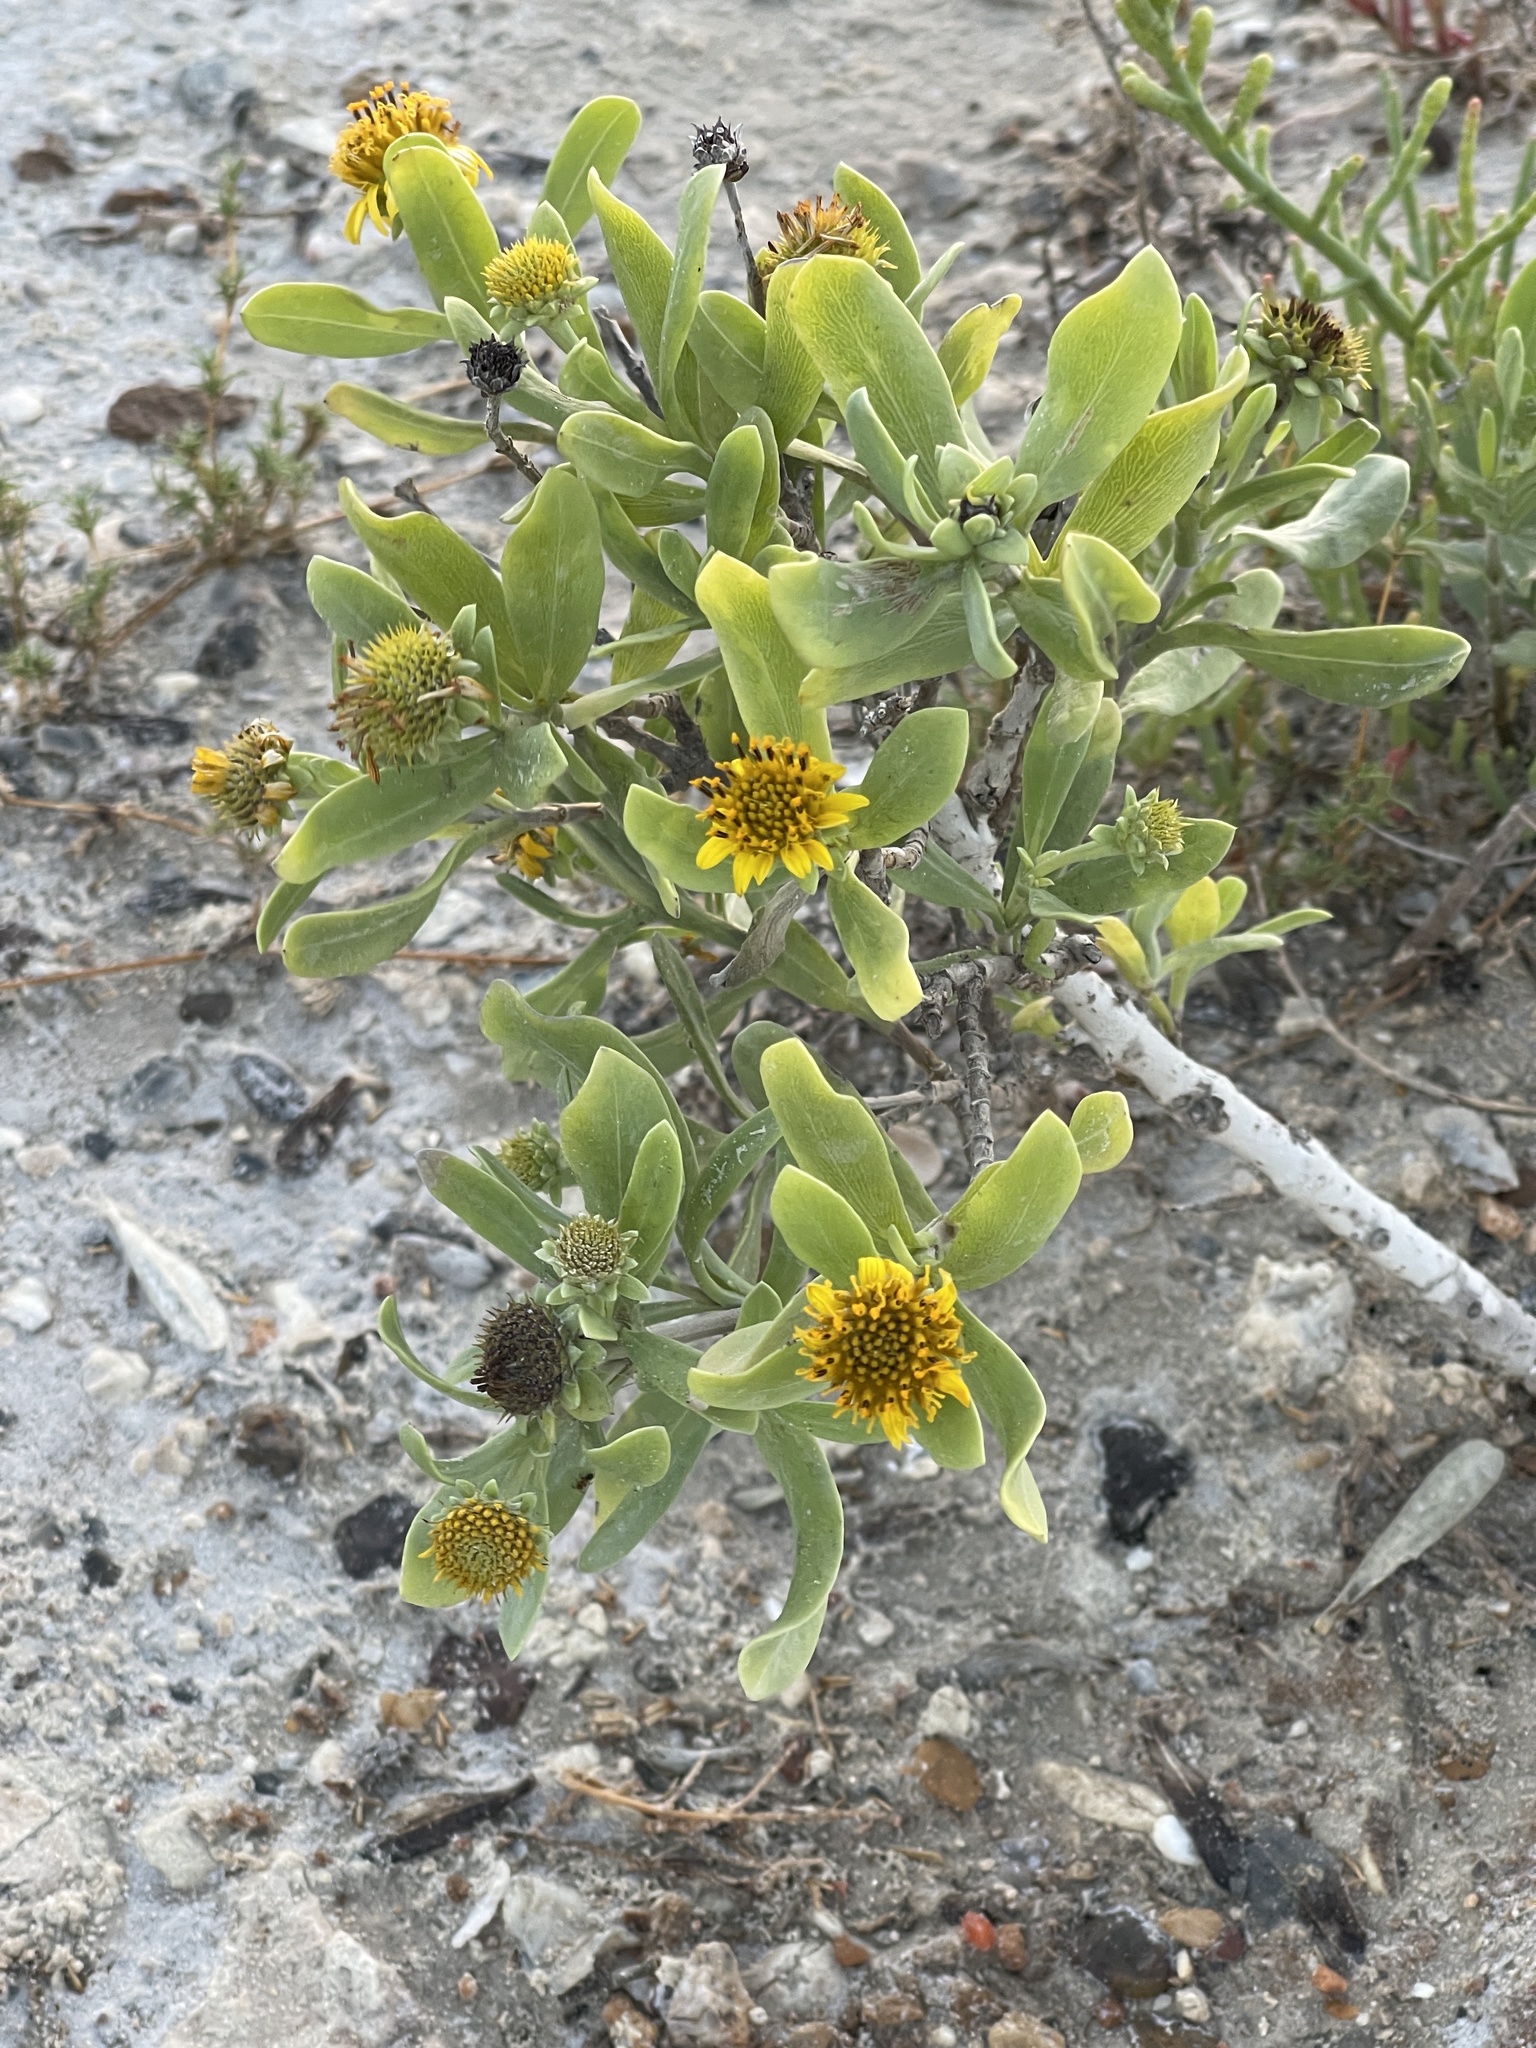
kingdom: Plantae
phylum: Tracheophyta
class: Magnoliopsida
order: Asterales
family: Asteraceae
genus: Borrichia
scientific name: Borrichia frutescens
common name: Sea oxeye
